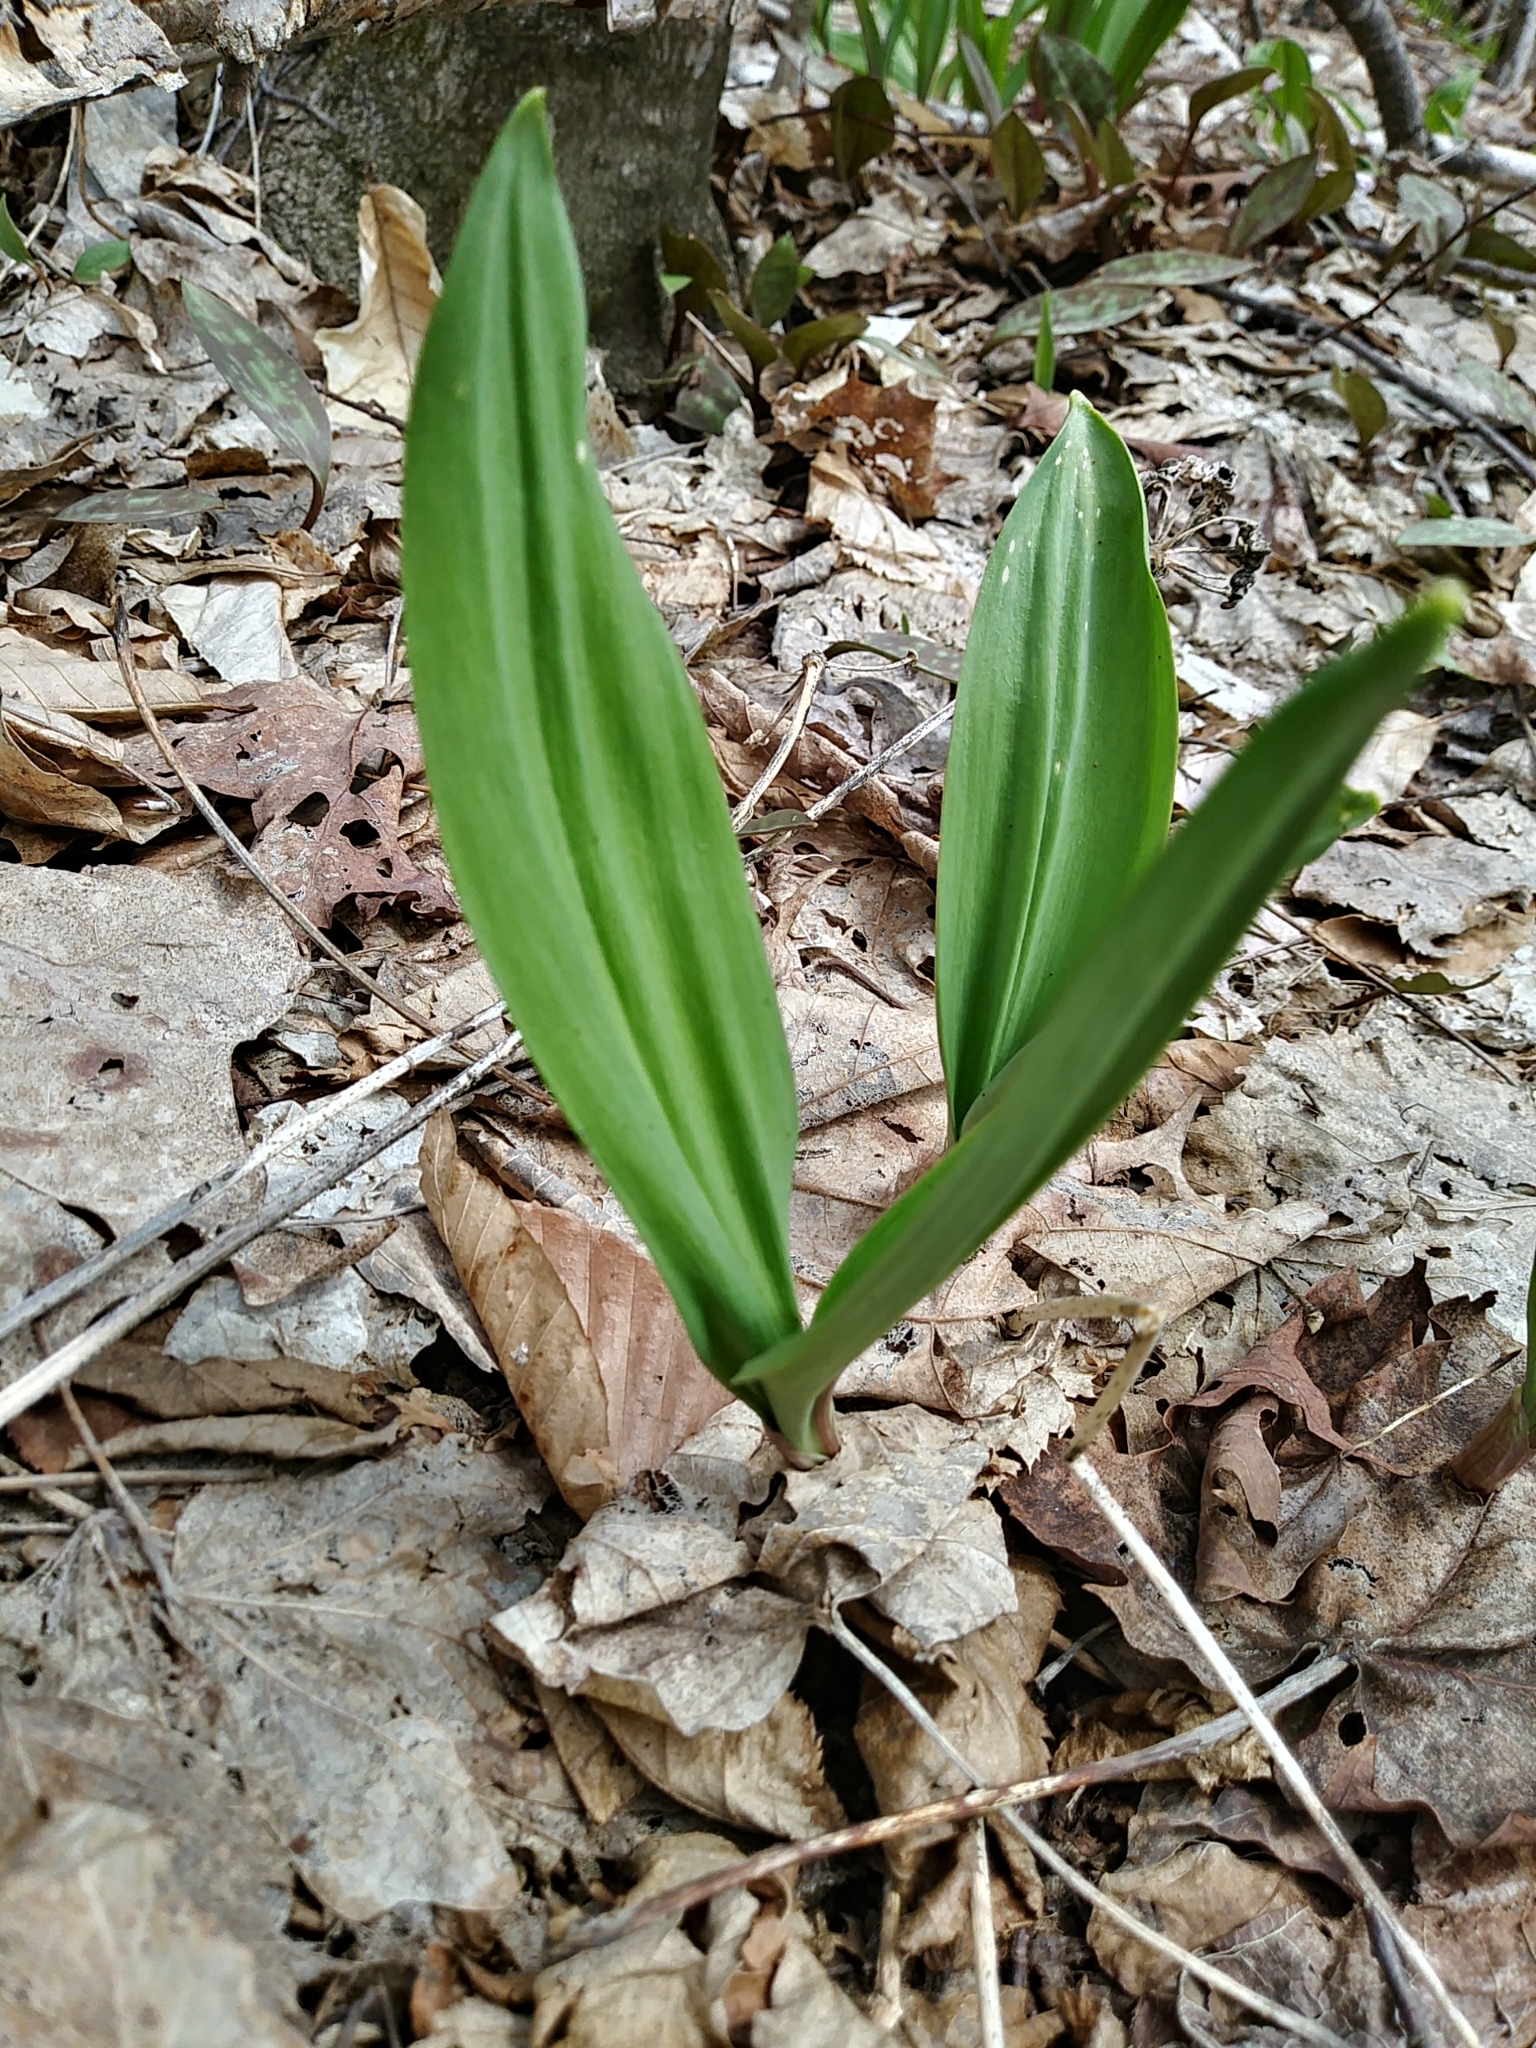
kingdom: Plantae
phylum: Tracheophyta
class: Liliopsida
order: Asparagales
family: Amaryllidaceae
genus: Allium
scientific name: Allium tricoccum
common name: Ramp
